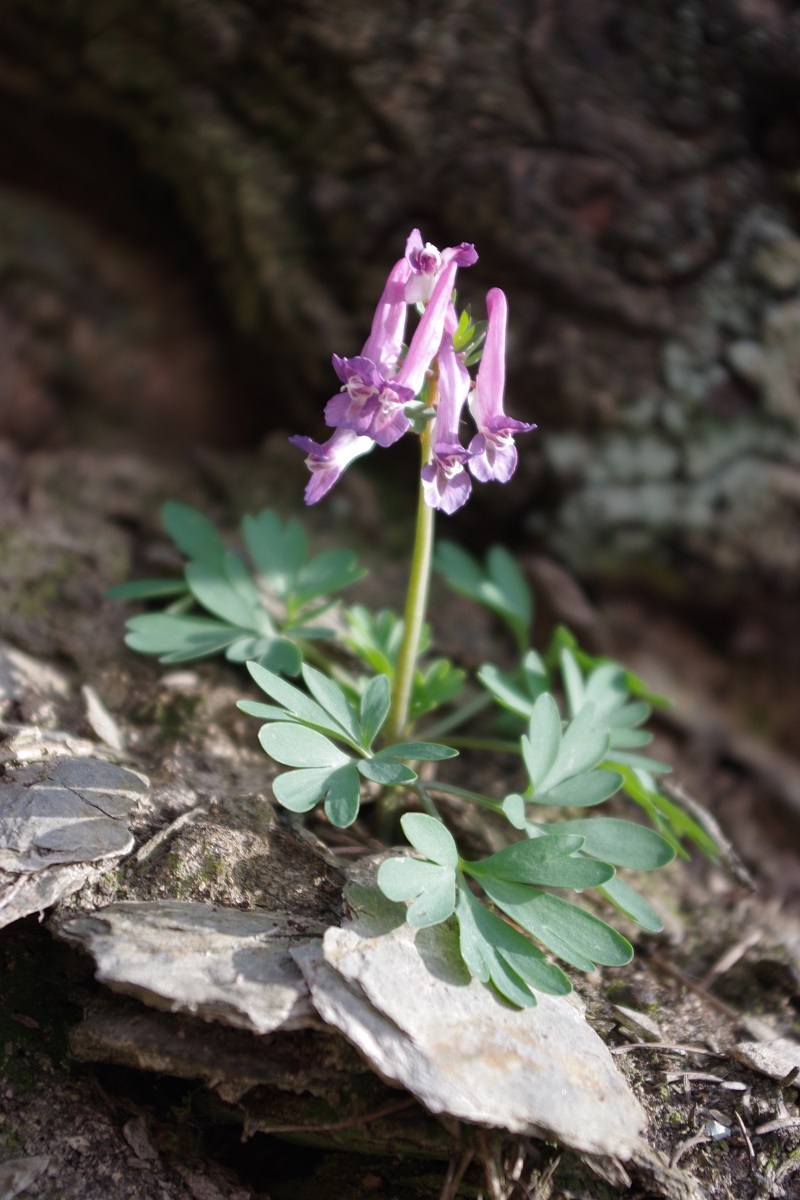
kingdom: Plantae
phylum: Tracheophyta
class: Magnoliopsida
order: Ranunculales
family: Papaveraceae
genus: Corydalis
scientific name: Corydalis solida
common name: Bird-in-a-bush
